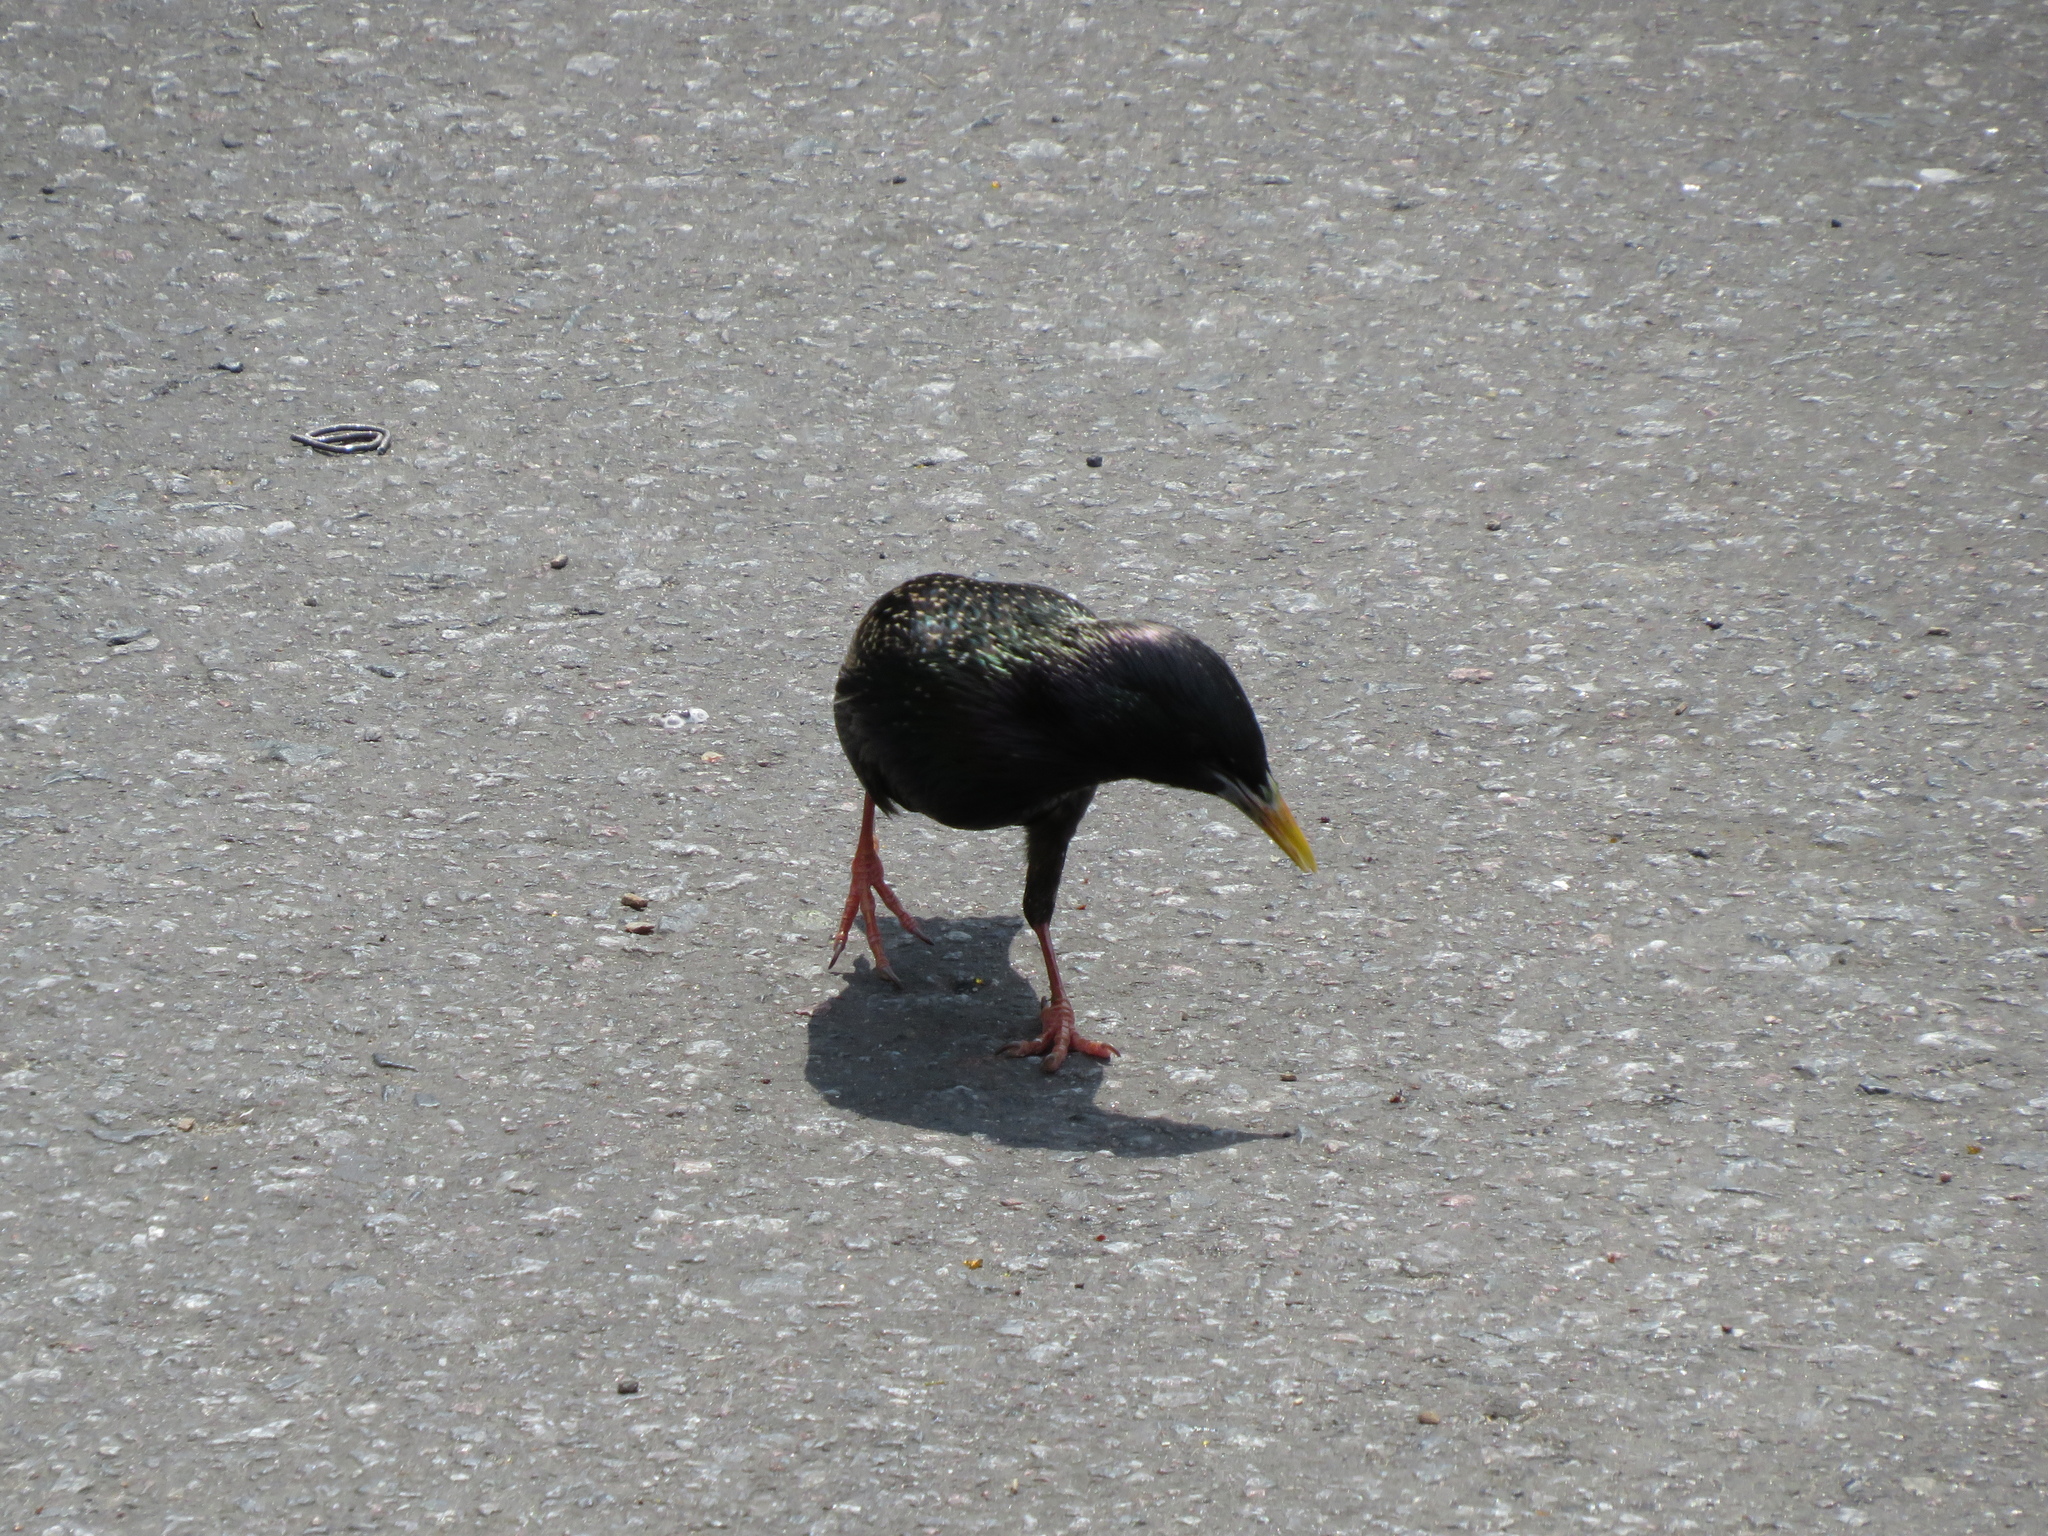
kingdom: Animalia
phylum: Chordata
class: Aves
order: Passeriformes
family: Sturnidae
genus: Sturnus
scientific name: Sturnus vulgaris
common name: Common starling
